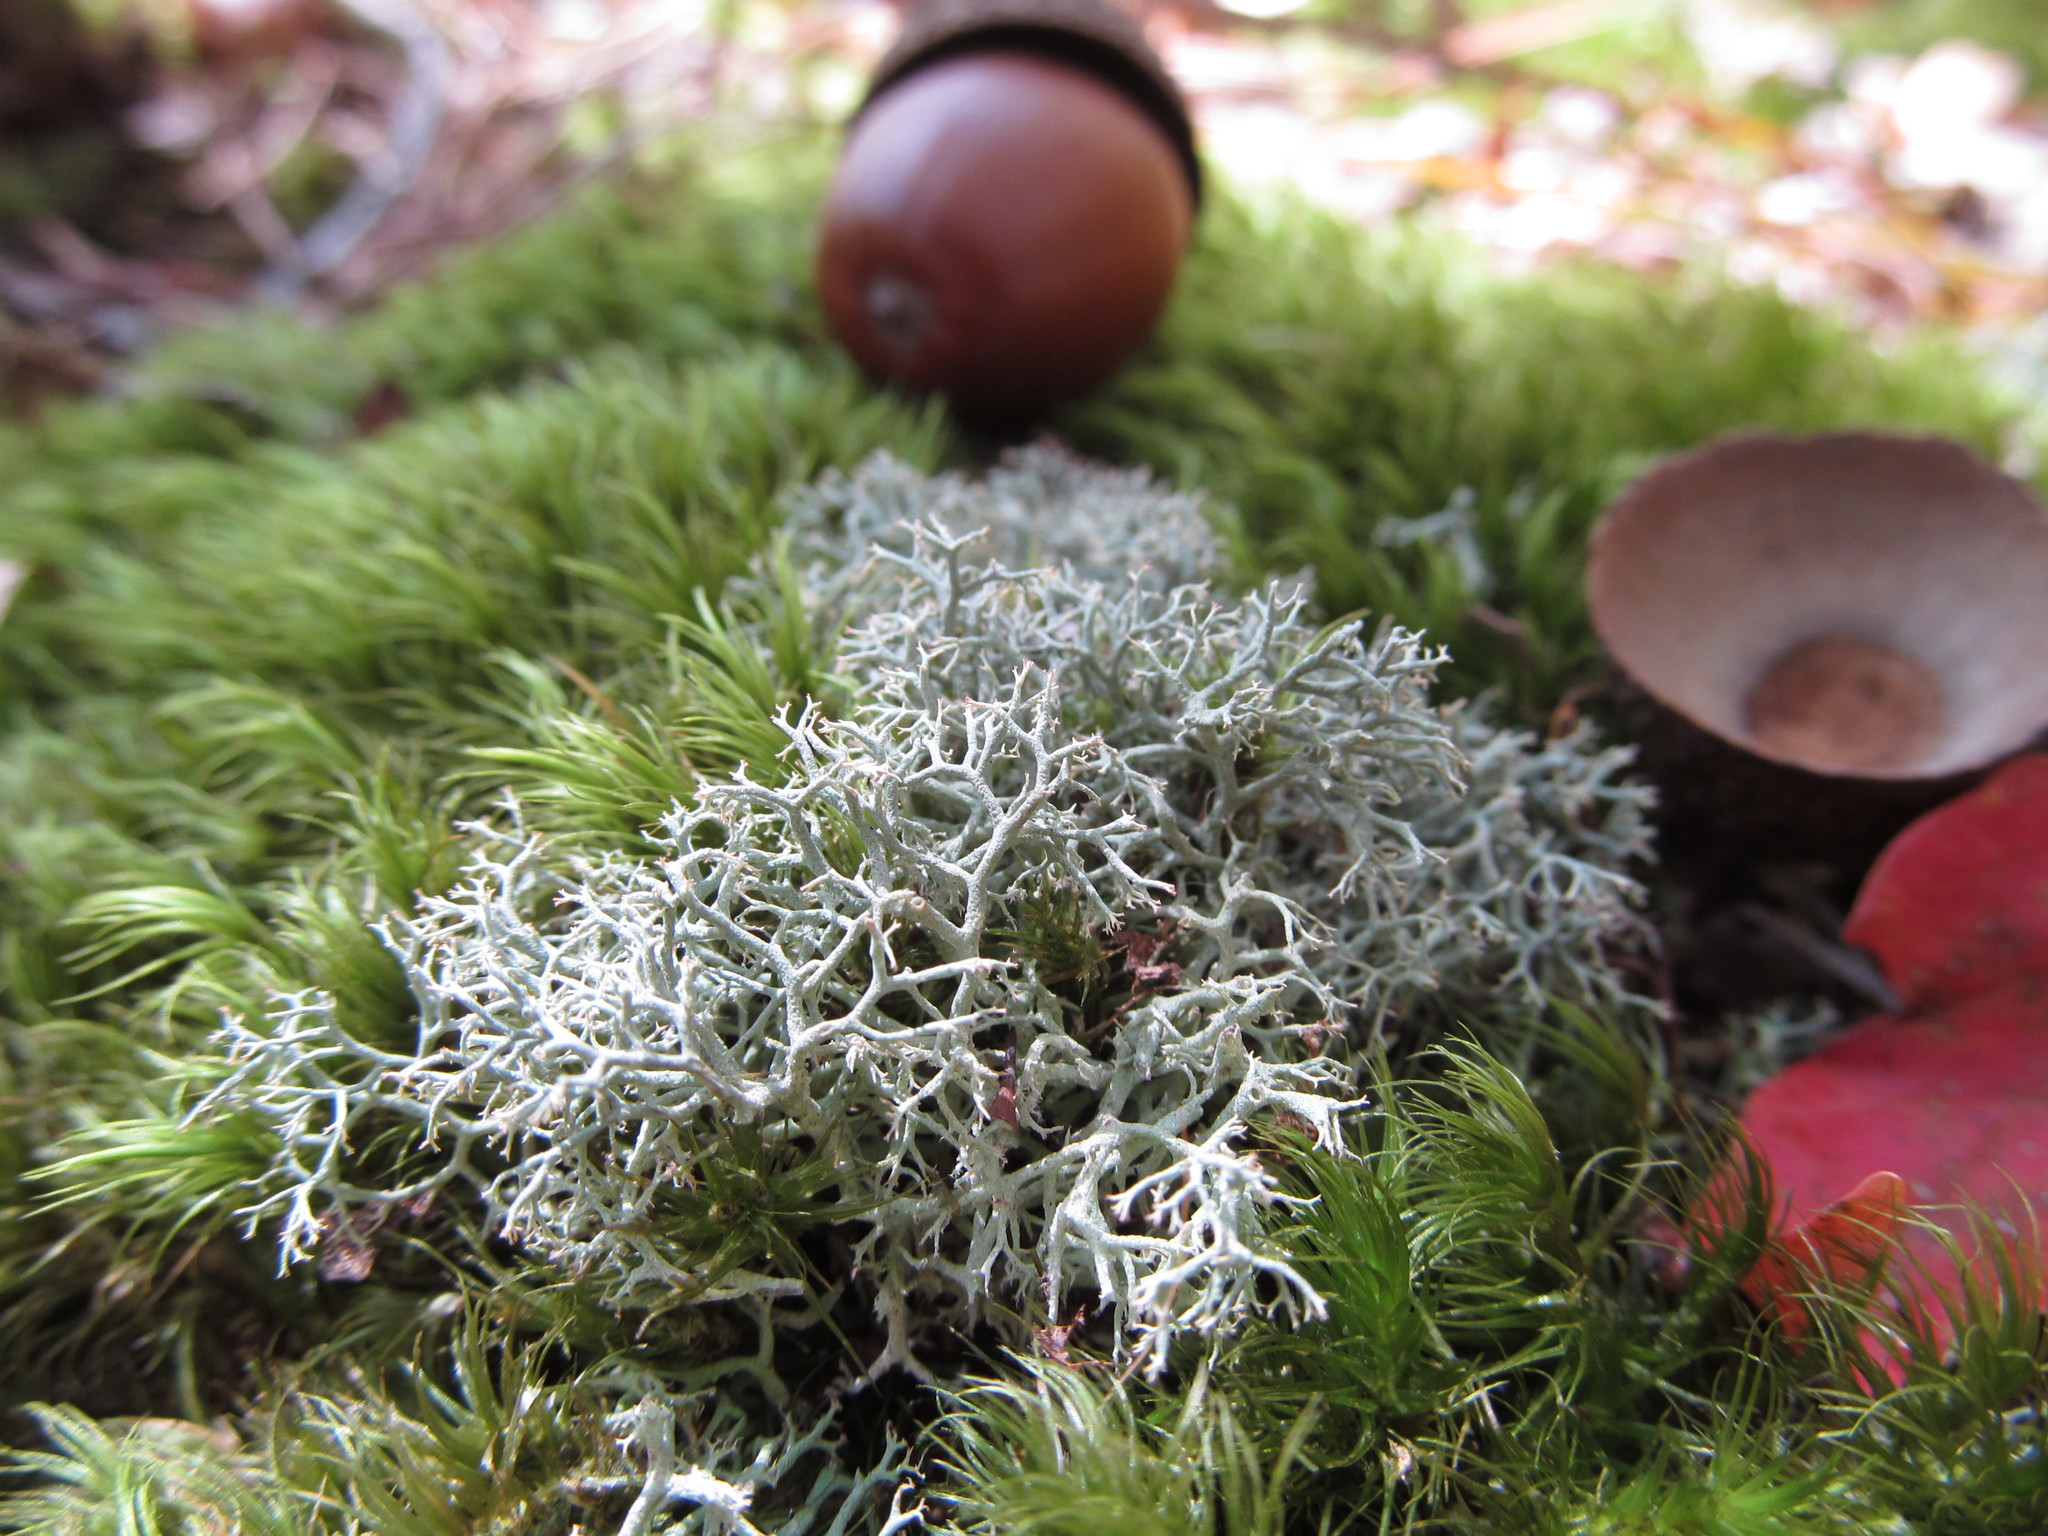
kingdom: Fungi
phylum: Ascomycota
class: Lecanoromycetes
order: Lecanorales
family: Cladoniaceae
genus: Cladonia
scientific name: Cladonia rangiferina
